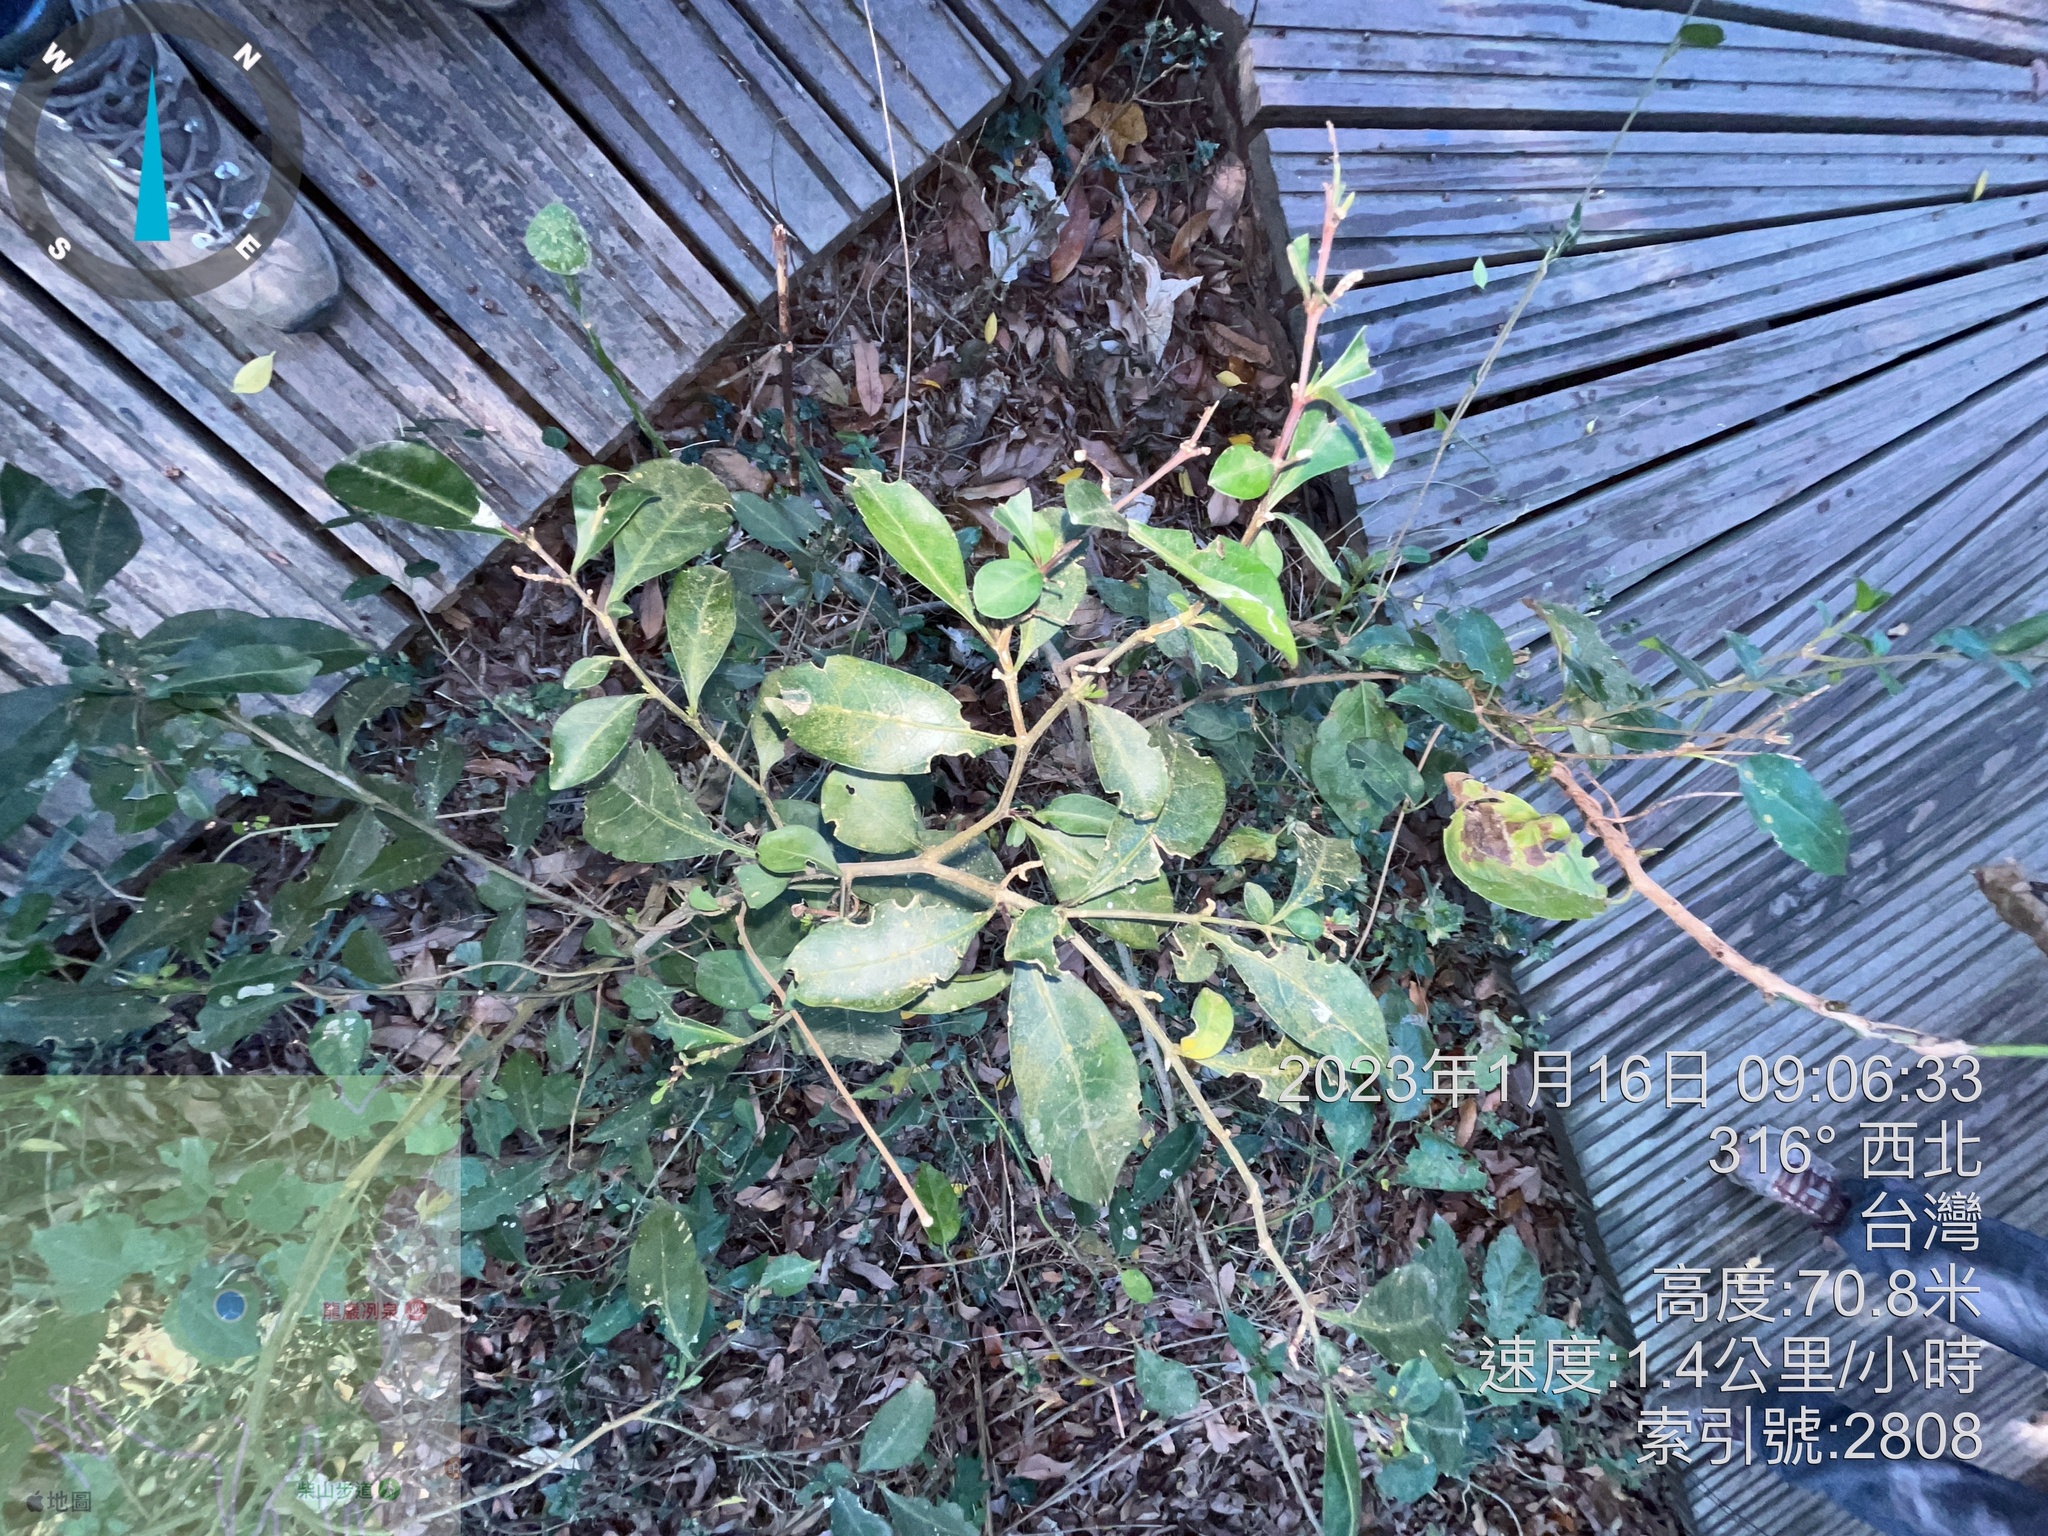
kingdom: Plantae
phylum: Tracheophyta
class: Magnoliopsida
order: Caryophyllales
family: Nyctaginaceae
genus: Pisonia
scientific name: Pisonia aculeata
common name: Cockspur vine
